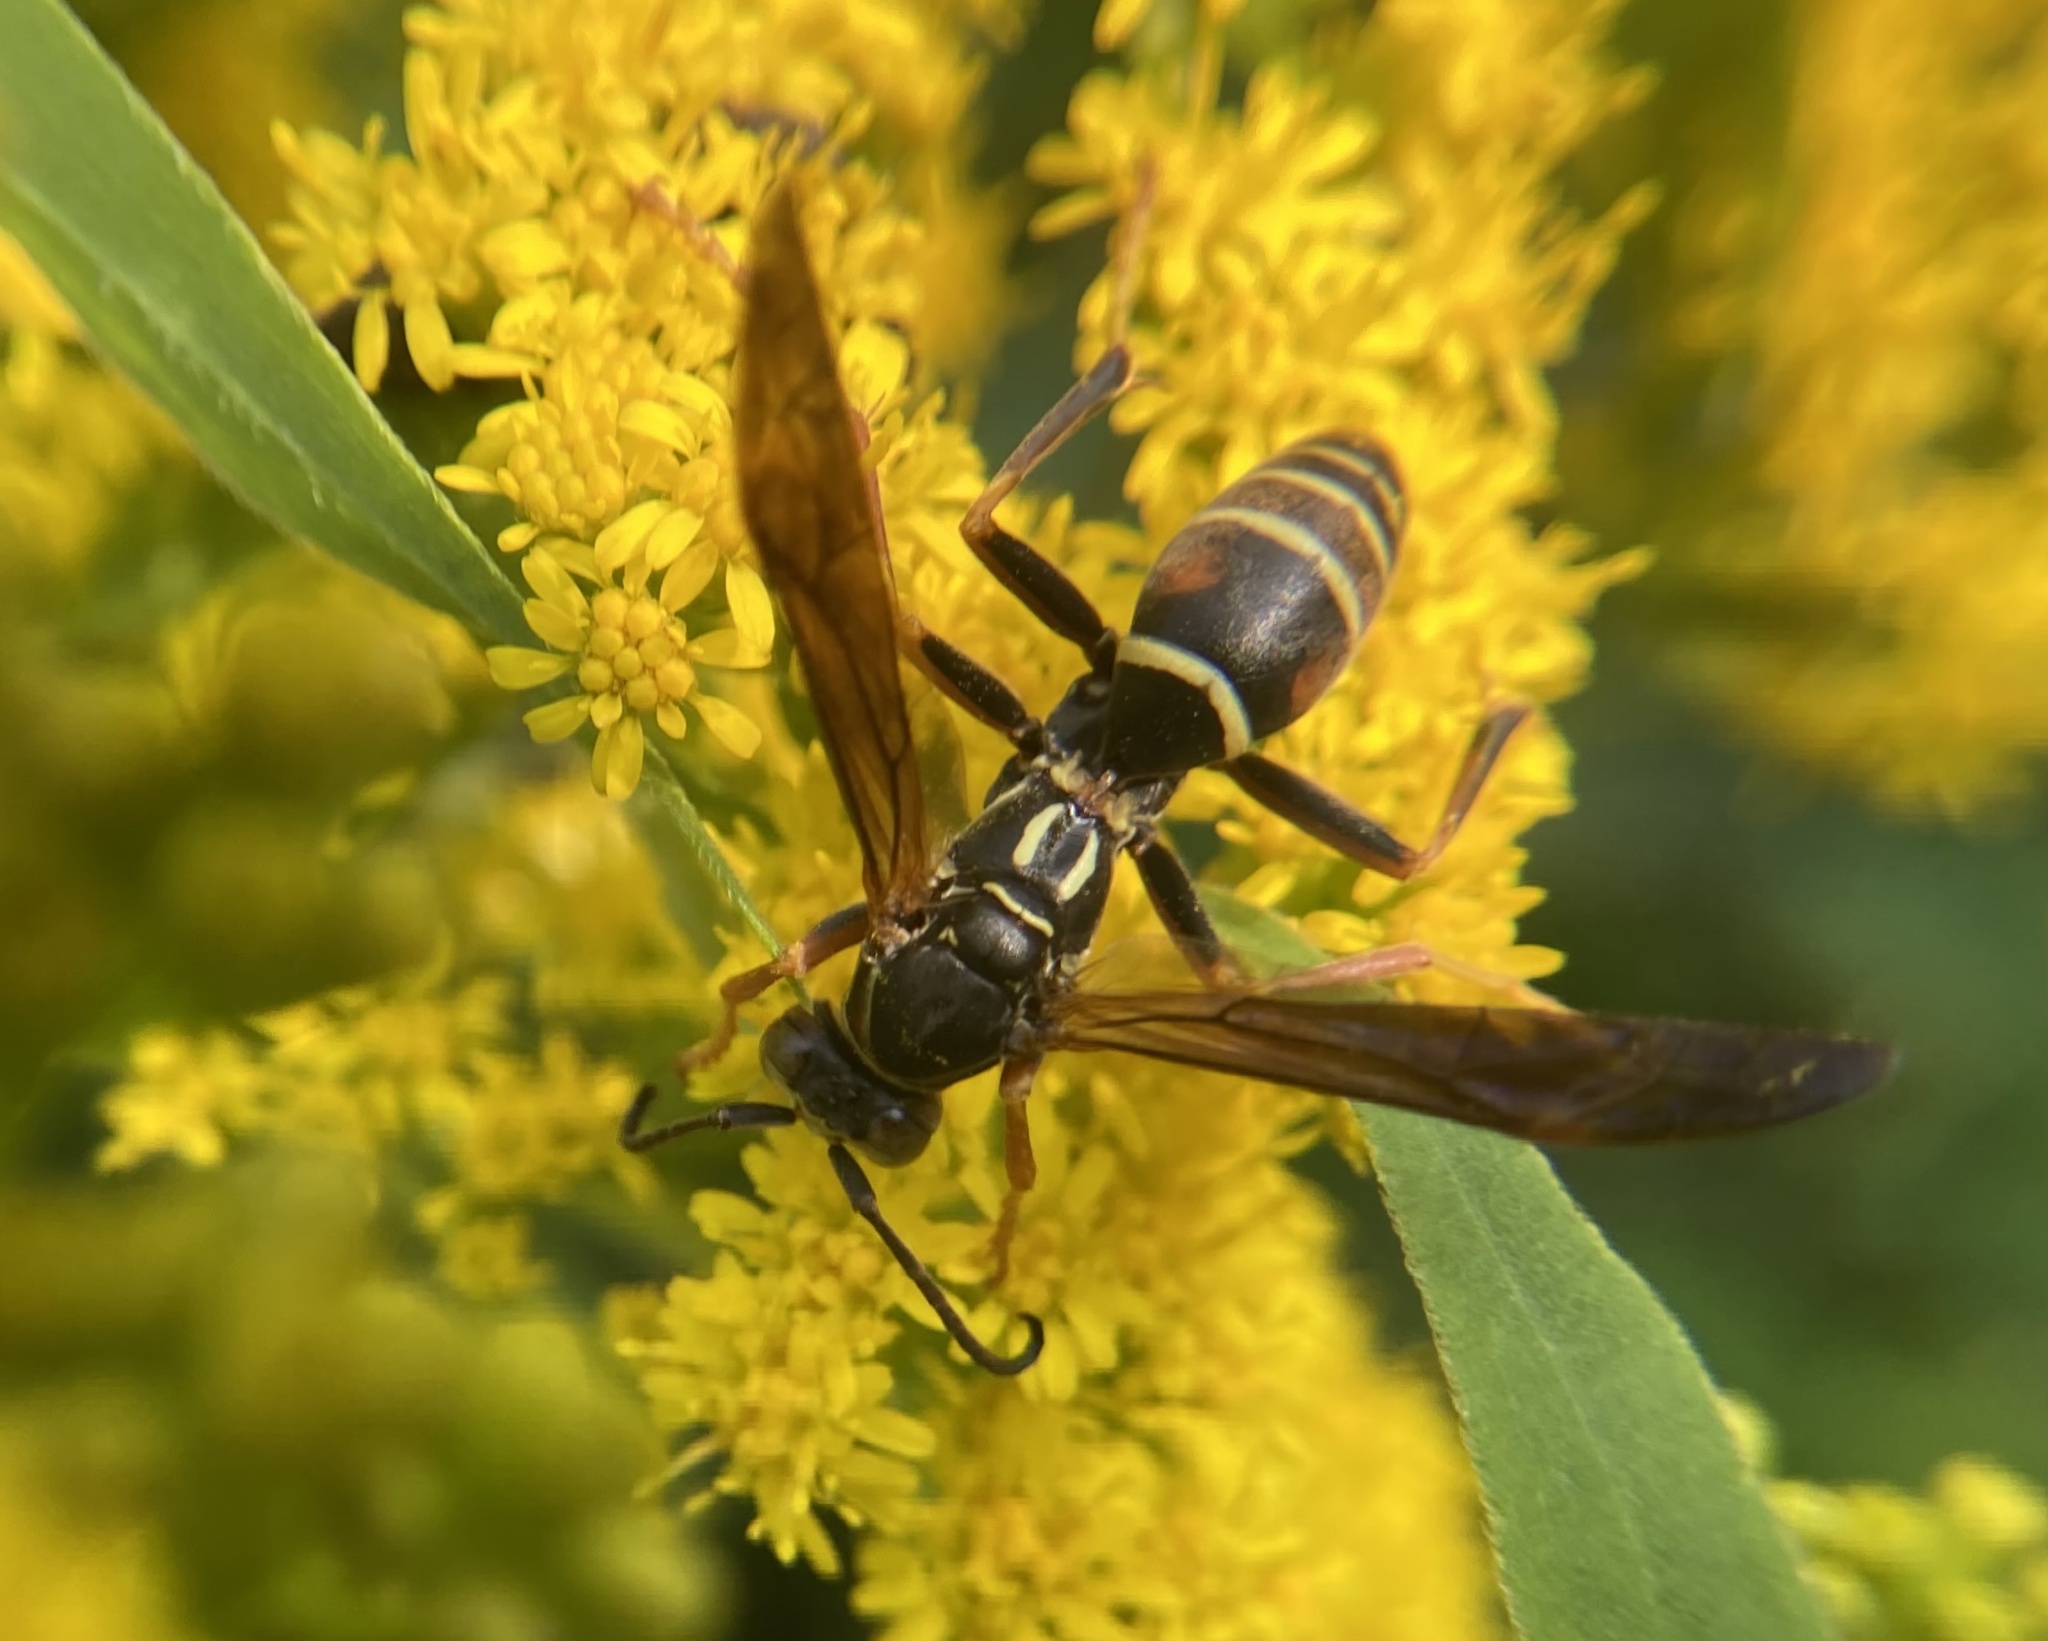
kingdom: Animalia
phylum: Arthropoda
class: Insecta
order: Hymenoptera
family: Eumenidae
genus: Polistes
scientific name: Polistes fuscatus
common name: Dark paper wasp
